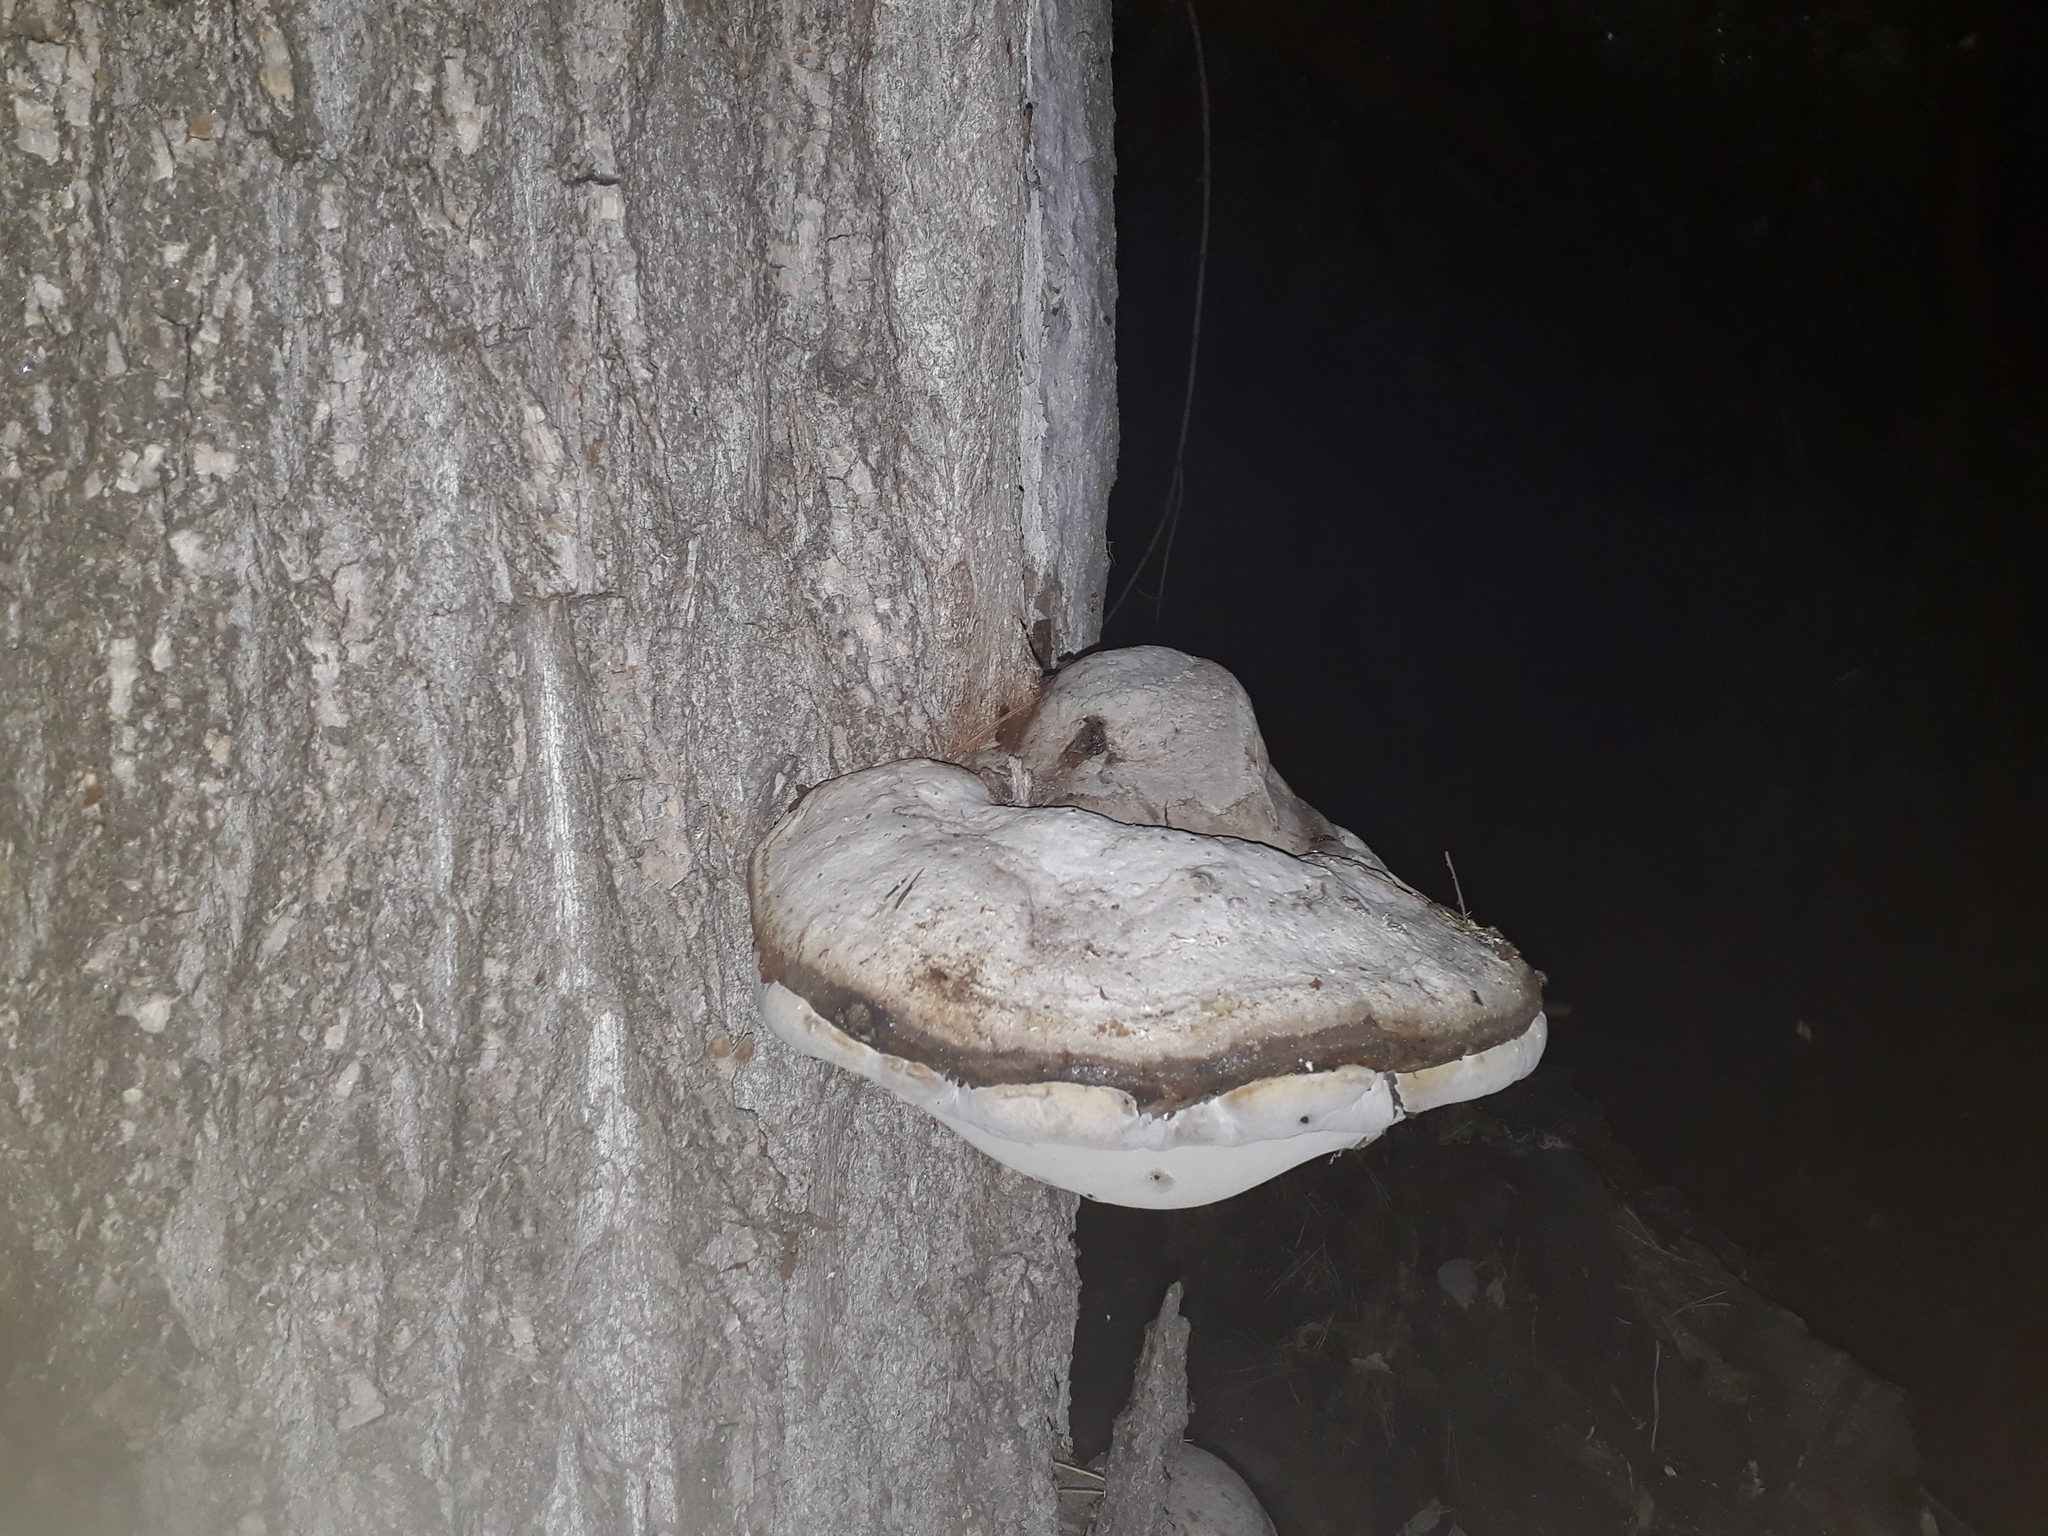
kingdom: Fungi
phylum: Basidiomycota
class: Agaricomycetes
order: Polyporales
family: Polyporaceae
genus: Fomes
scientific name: Fomes fomentarius
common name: Hoof fungus
